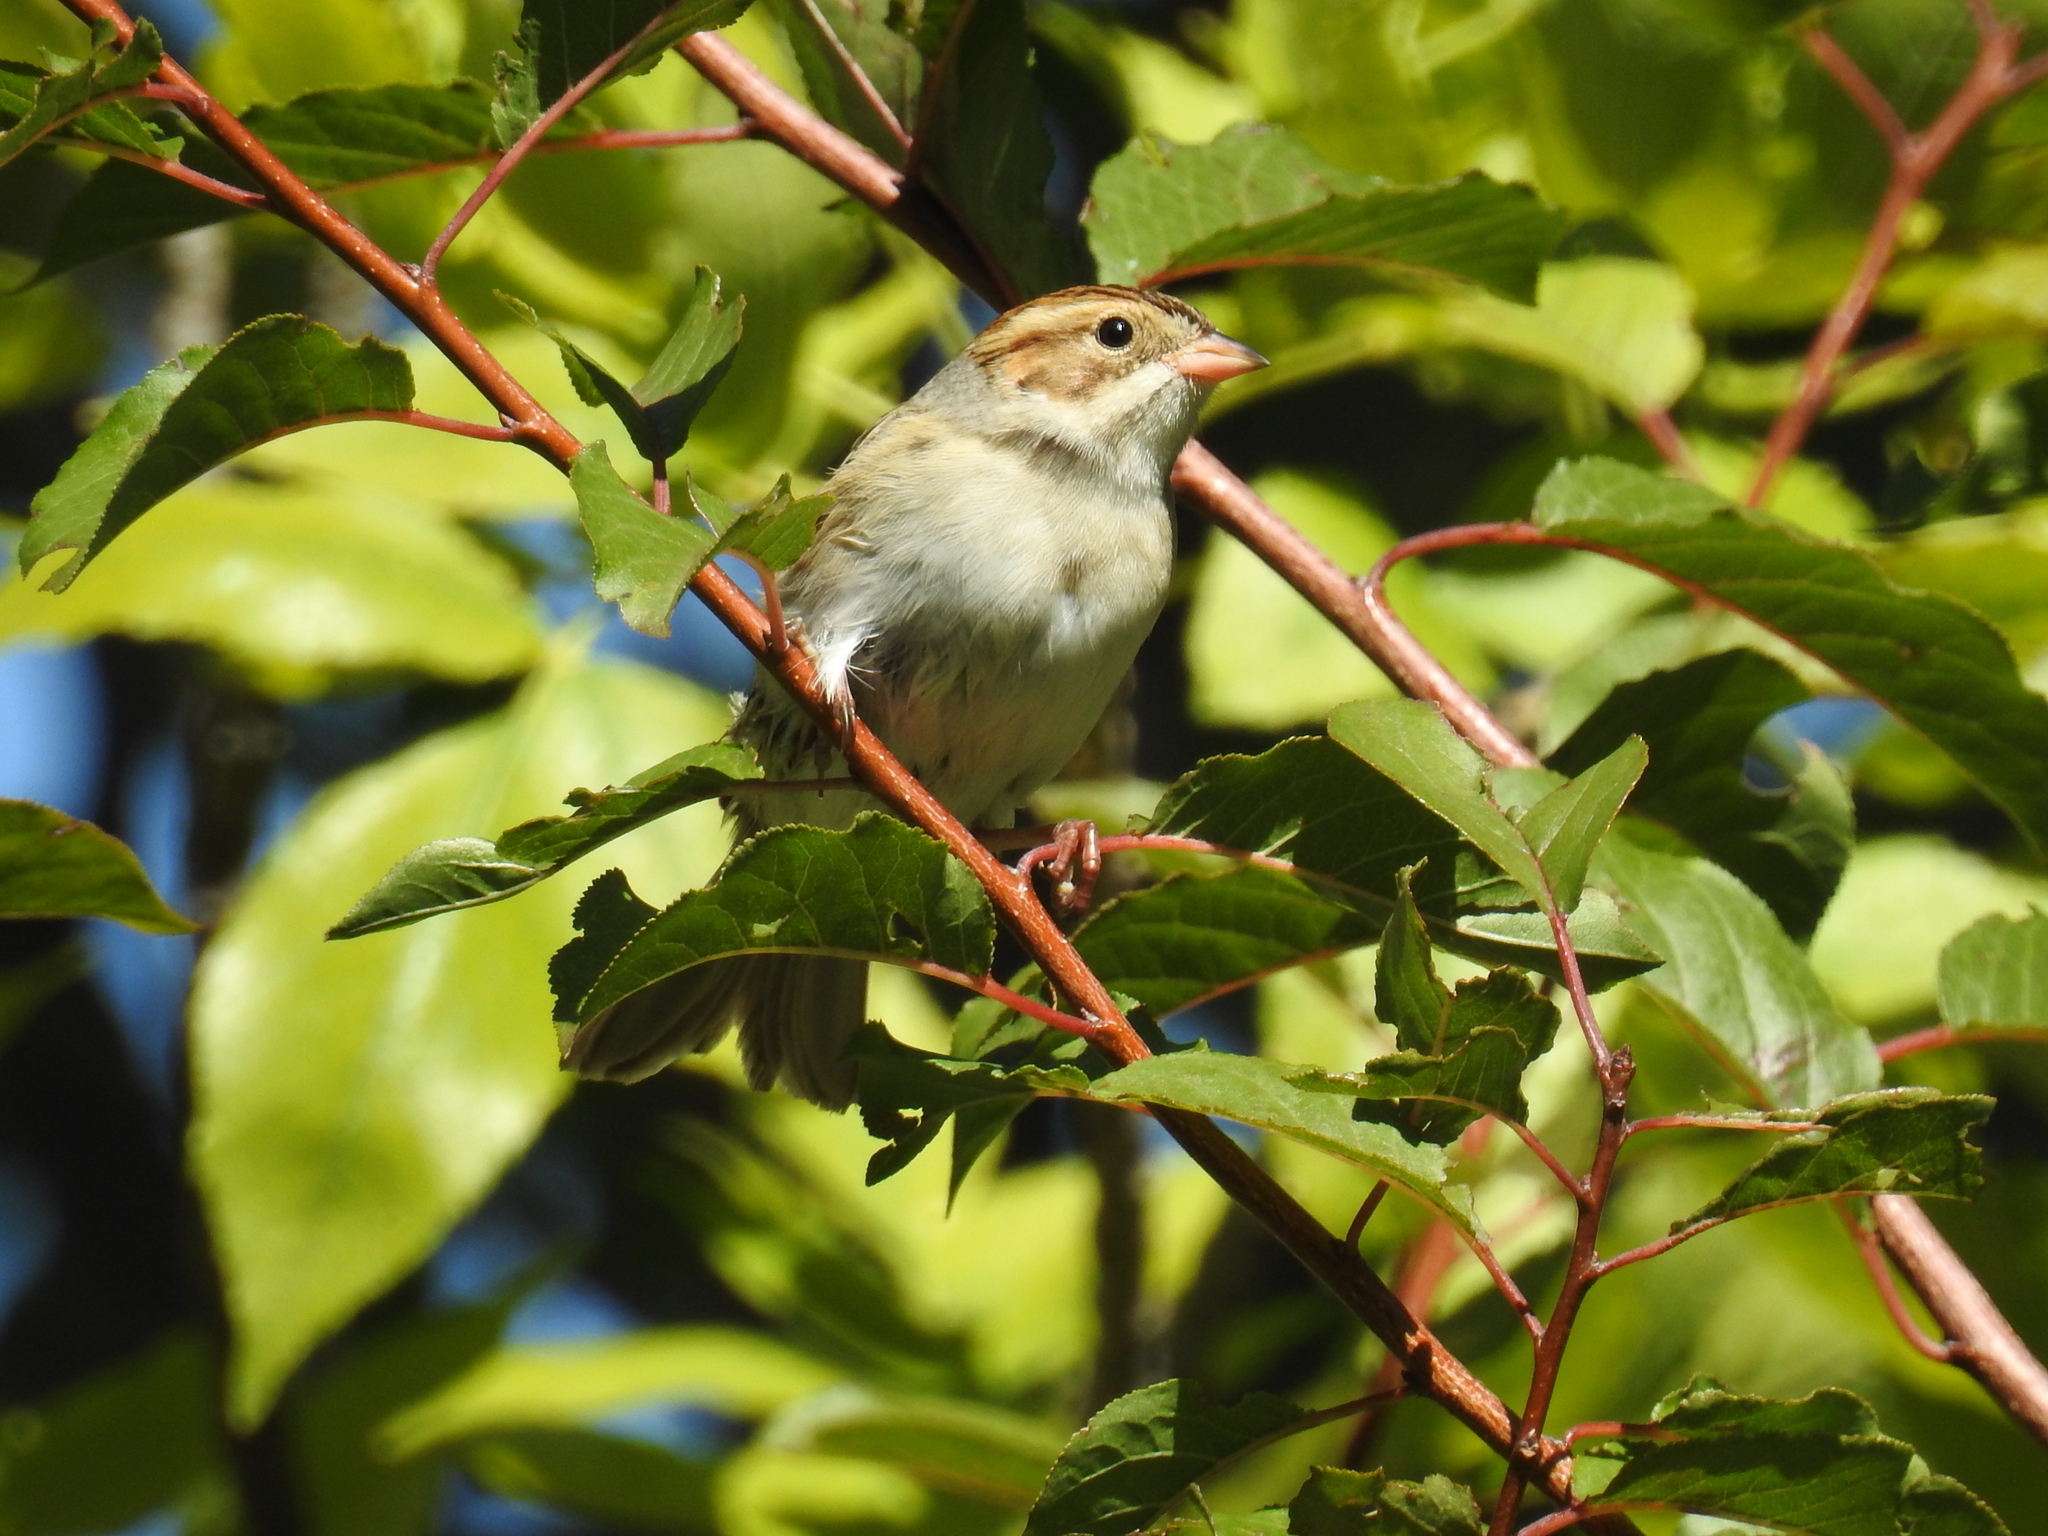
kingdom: Animalia
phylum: Chordata
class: Aves
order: Passeriformes
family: Passerellidae
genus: Spizella
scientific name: Spizella pallida
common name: Clay-colored sparrow
